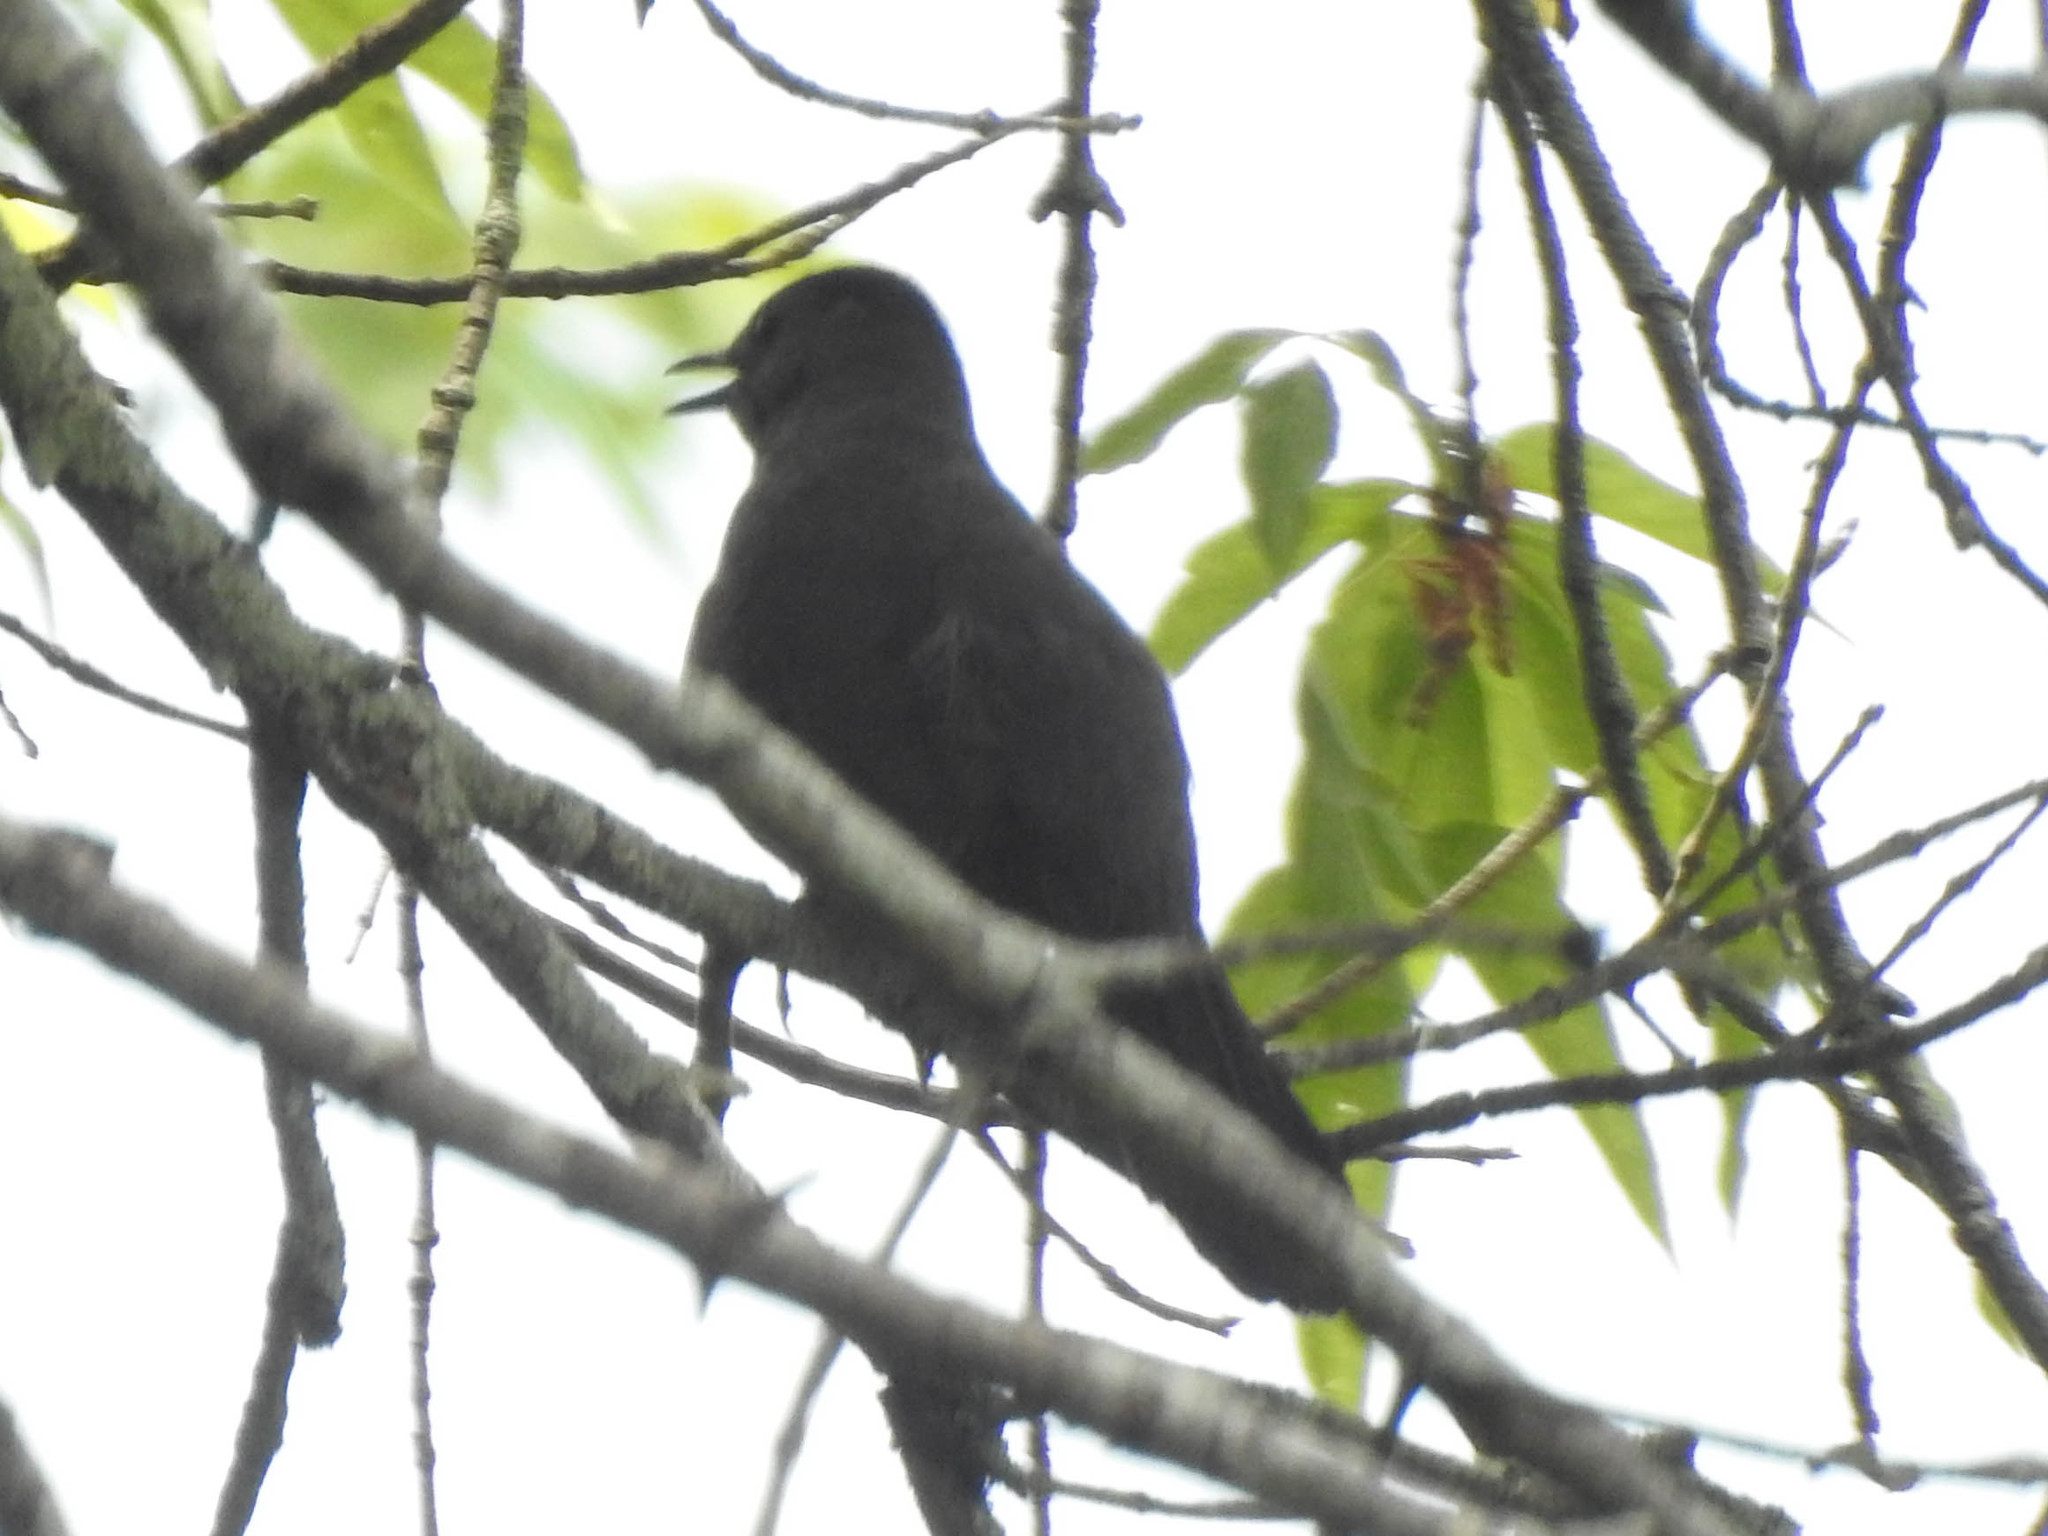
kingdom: Animalia
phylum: Chordata
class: Aves
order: Passeriformes
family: Mimidae
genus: Dumetella
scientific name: Dumetella carolinensis
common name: Gray catbird
